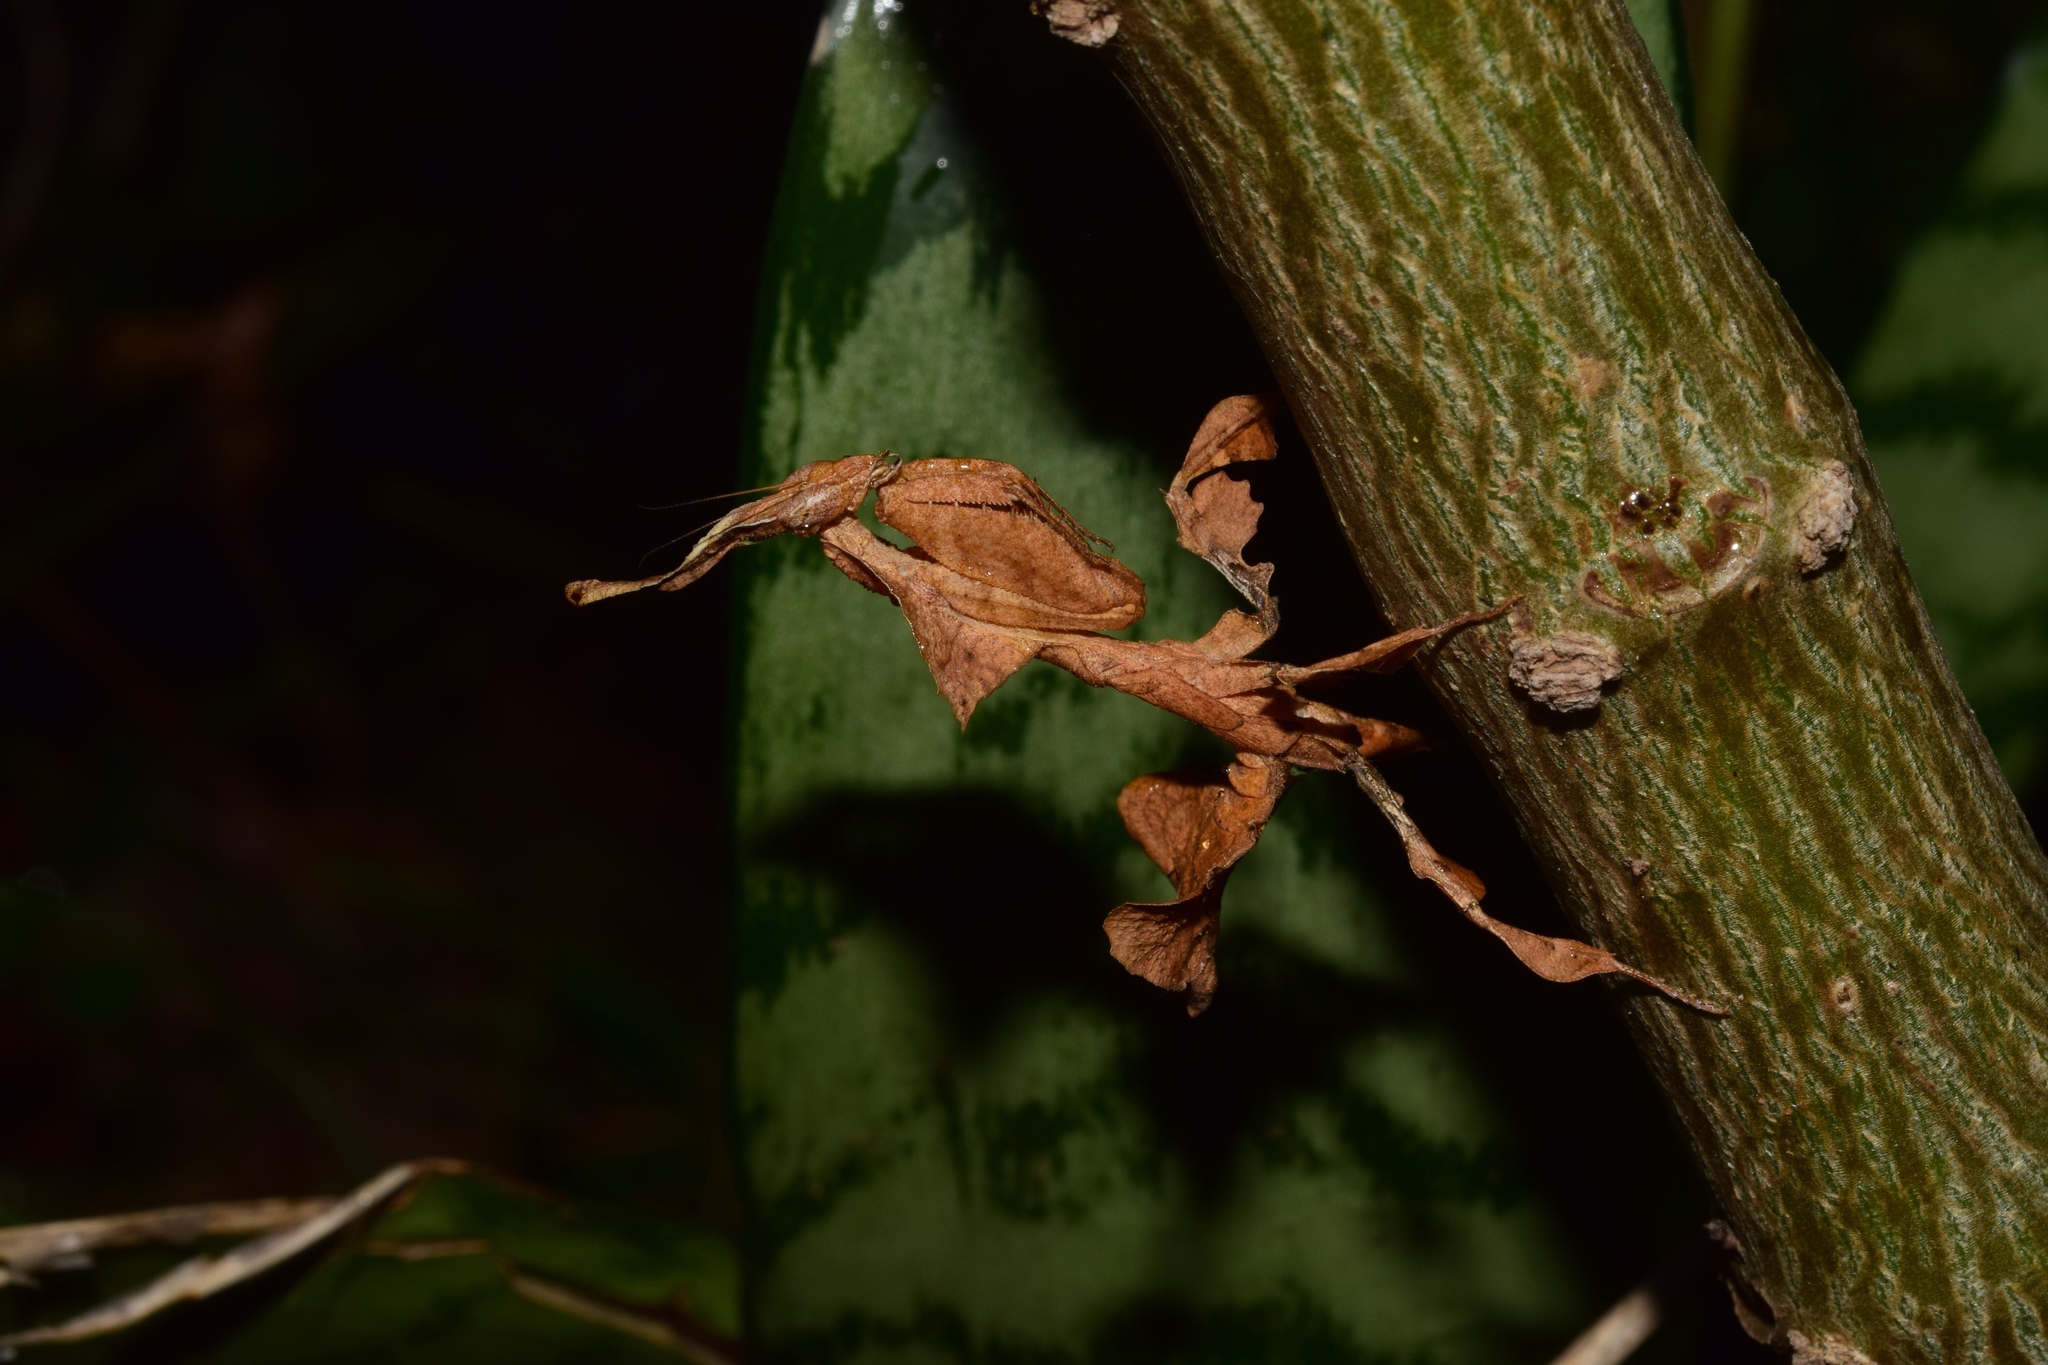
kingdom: Animalia
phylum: Arthropoda
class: Insecta
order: Mantodea
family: Hymenopodidae
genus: Phyllocrania
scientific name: Phyllocrania paradoxa
